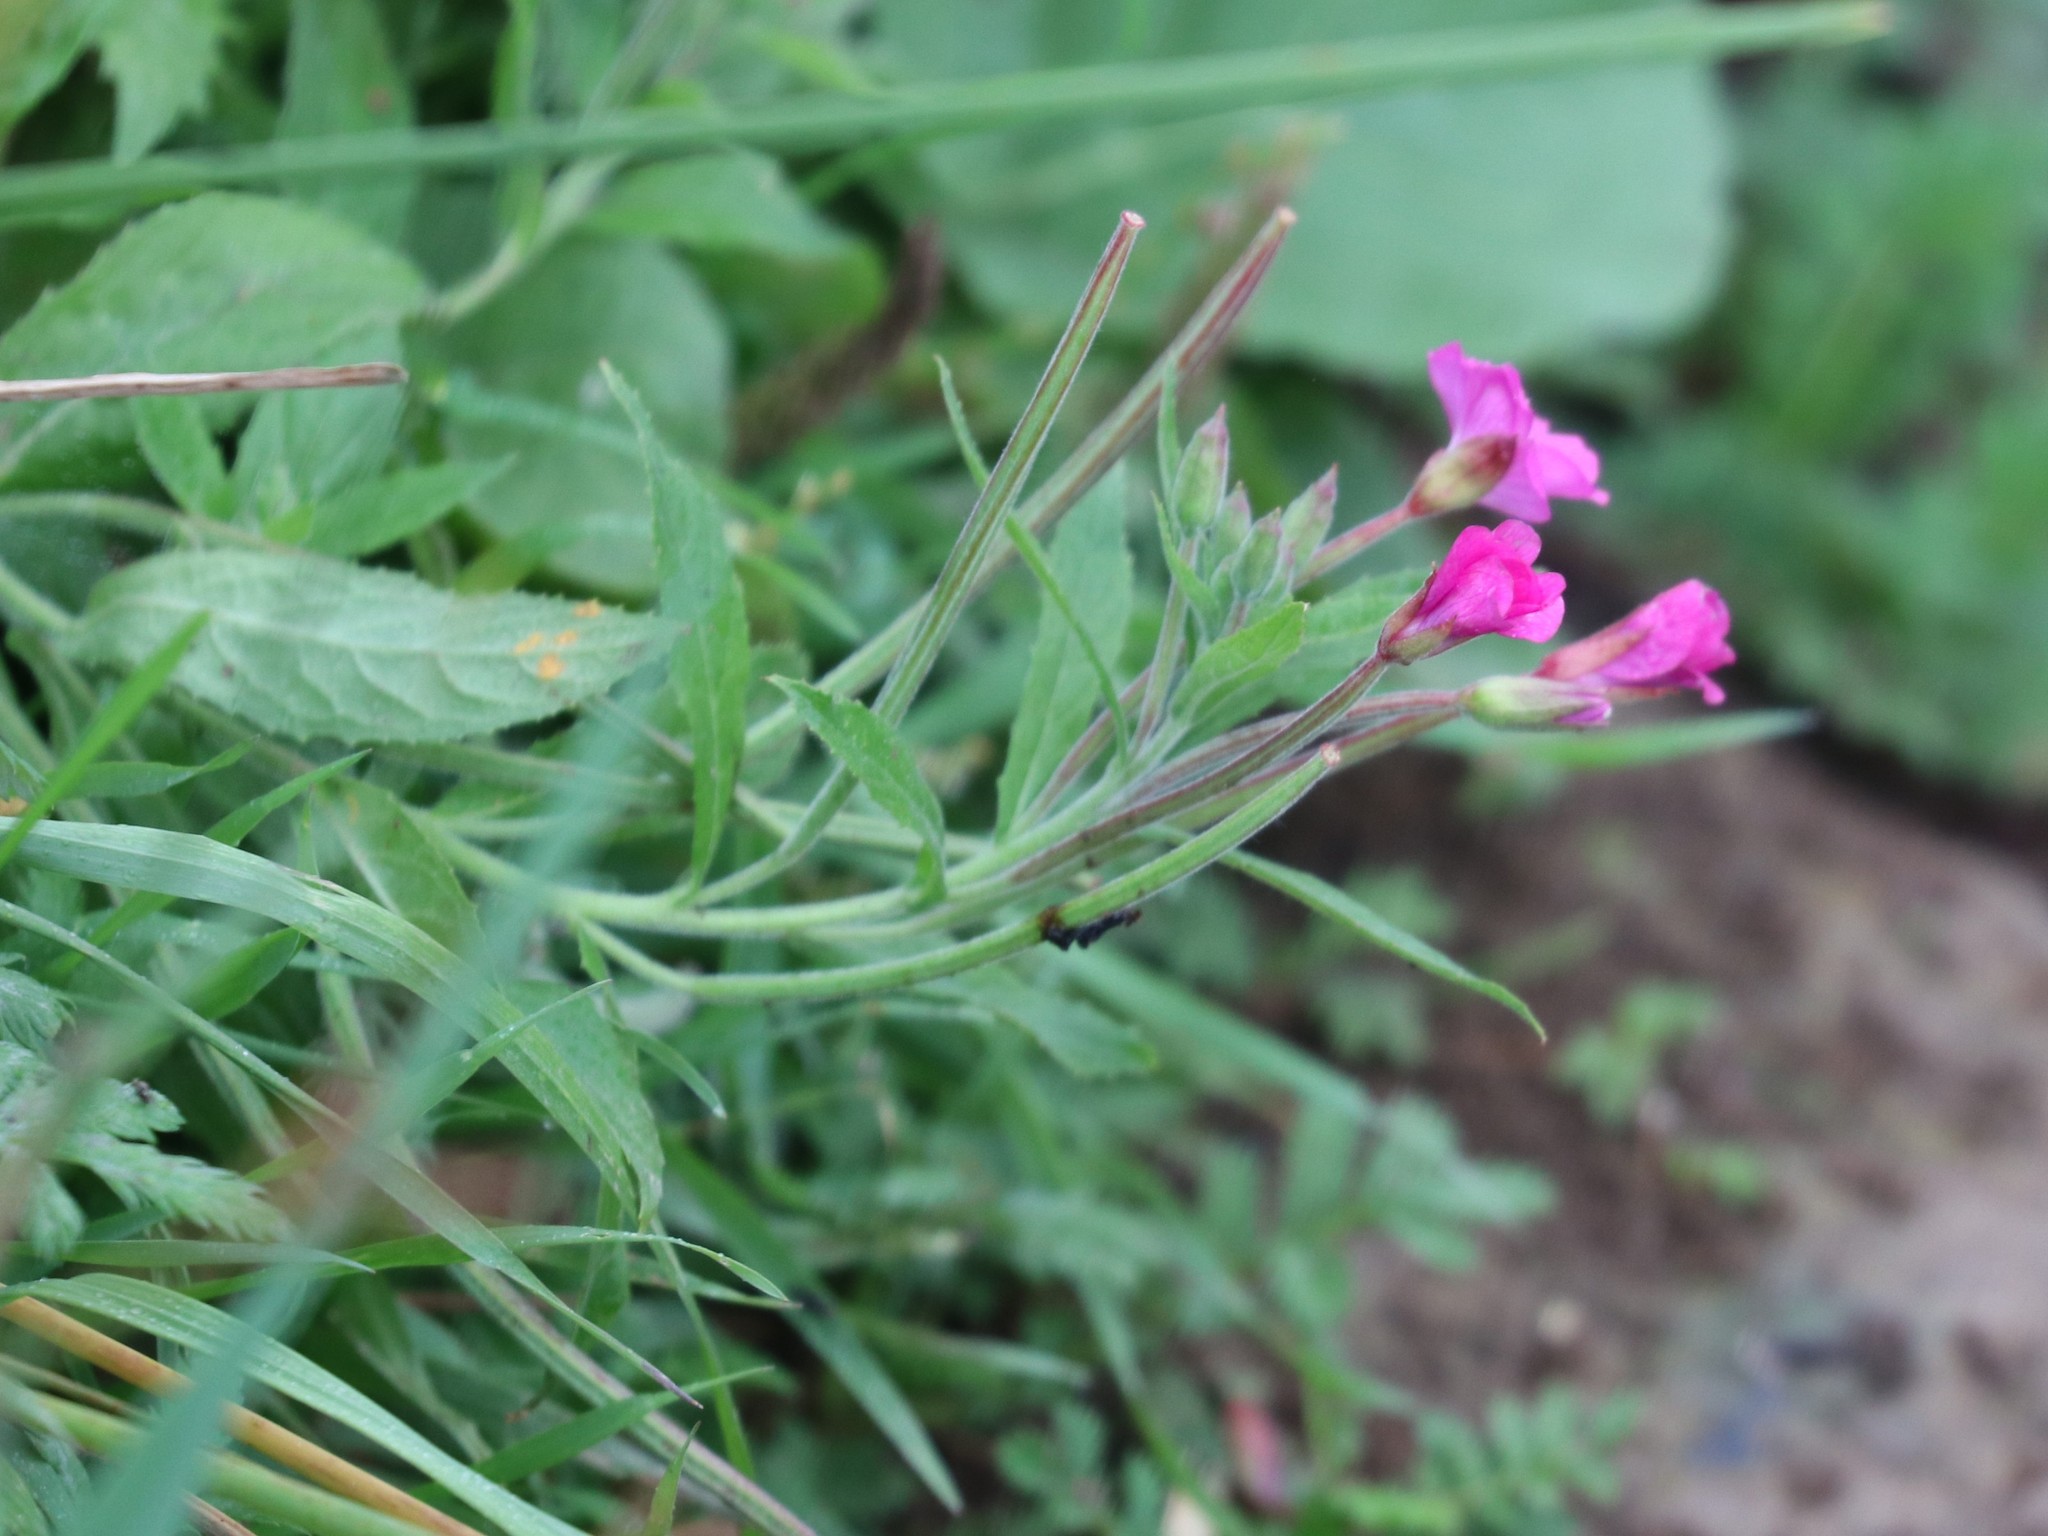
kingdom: Plantae
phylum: Tracheophyta
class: Magnoliopsida
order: Myrtales
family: Onagraceae
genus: Epilobium
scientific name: Epilobium hirsutum
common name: Great willowherb
